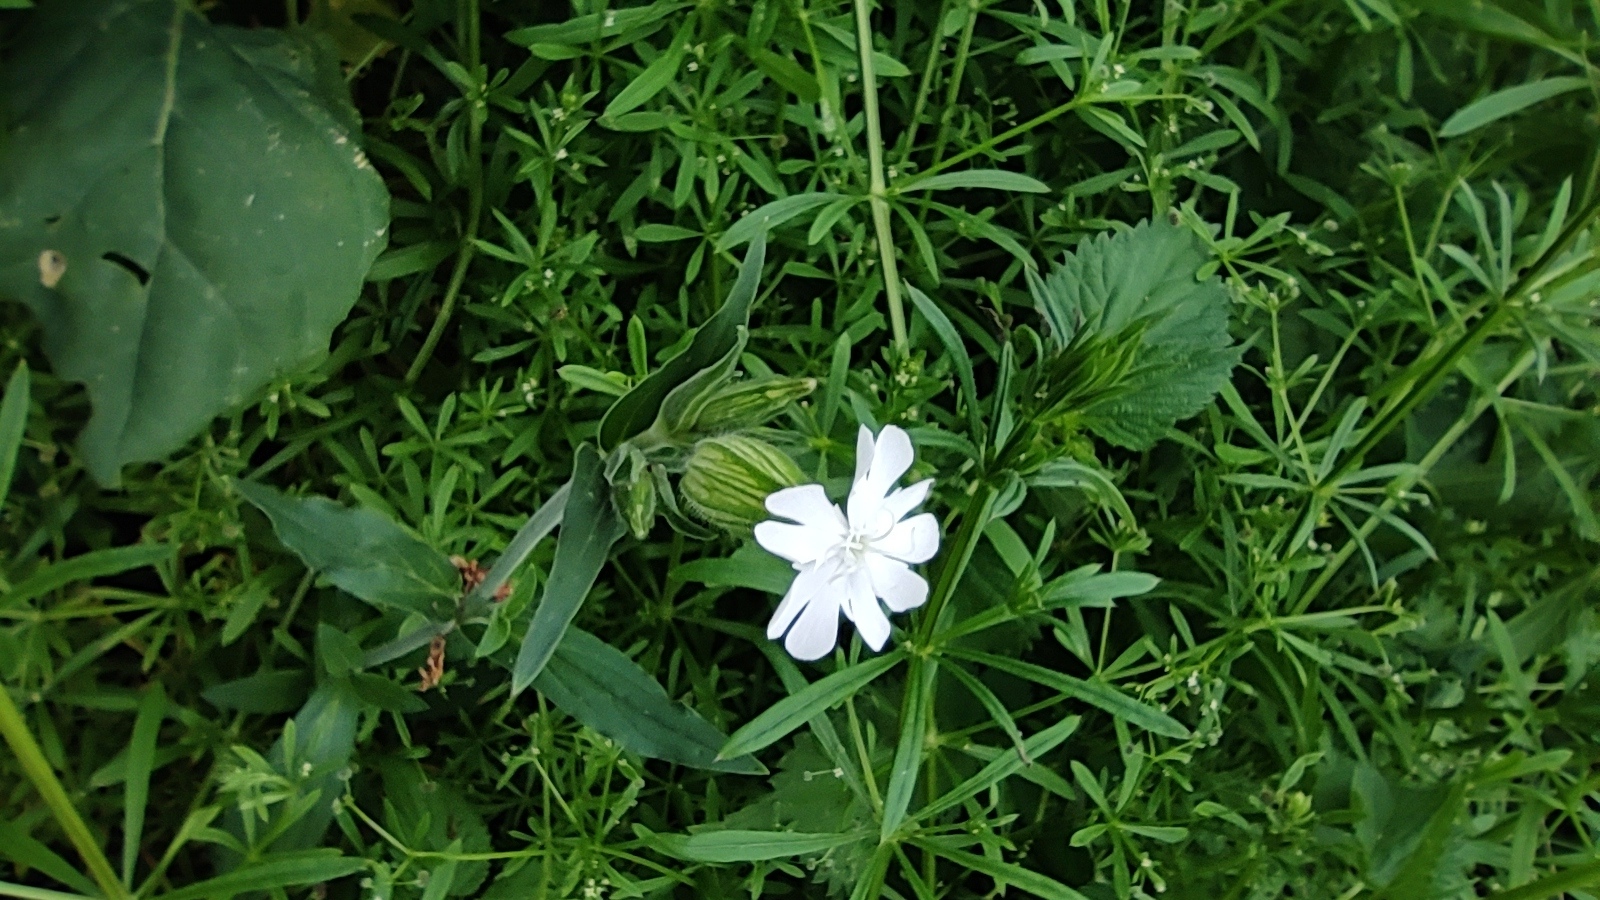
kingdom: Plantae
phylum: Tracheophyta
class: Magnoliopsida
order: Caryophyllales
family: Caryophyllaceae
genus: Silene
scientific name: Silene latifolia
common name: White campion
